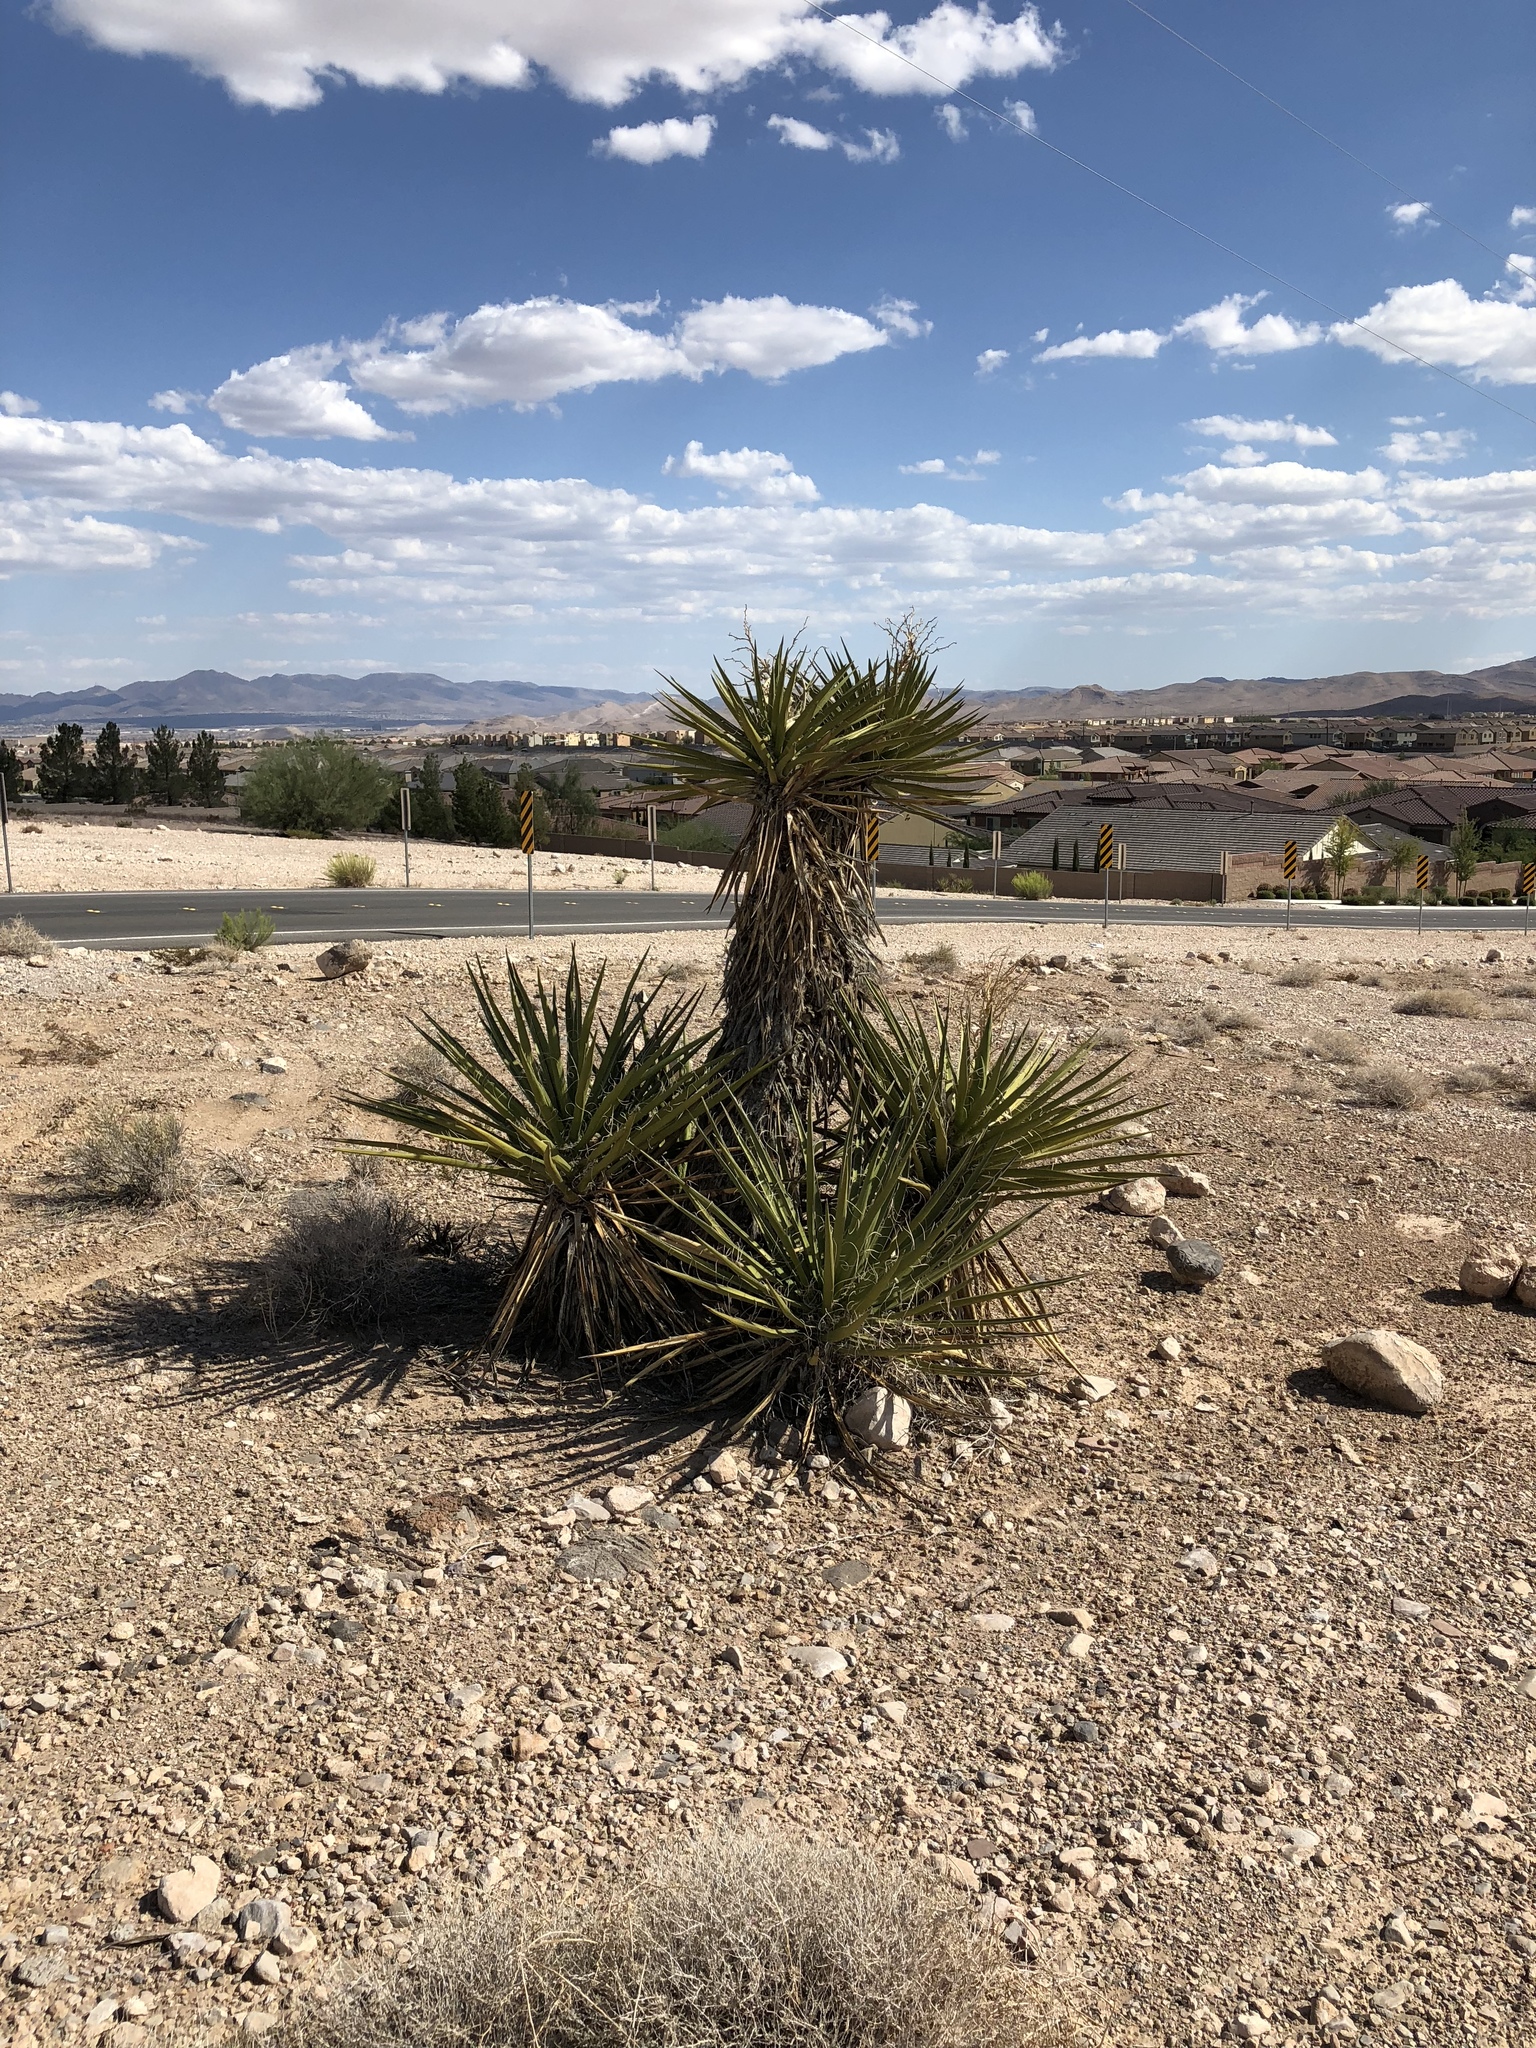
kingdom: Plantae
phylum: Tracheophyta
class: Liliopsida
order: Asparagales
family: Asparagaceae
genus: Yucca
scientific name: Yucca schidigera
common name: Mojave yucca
